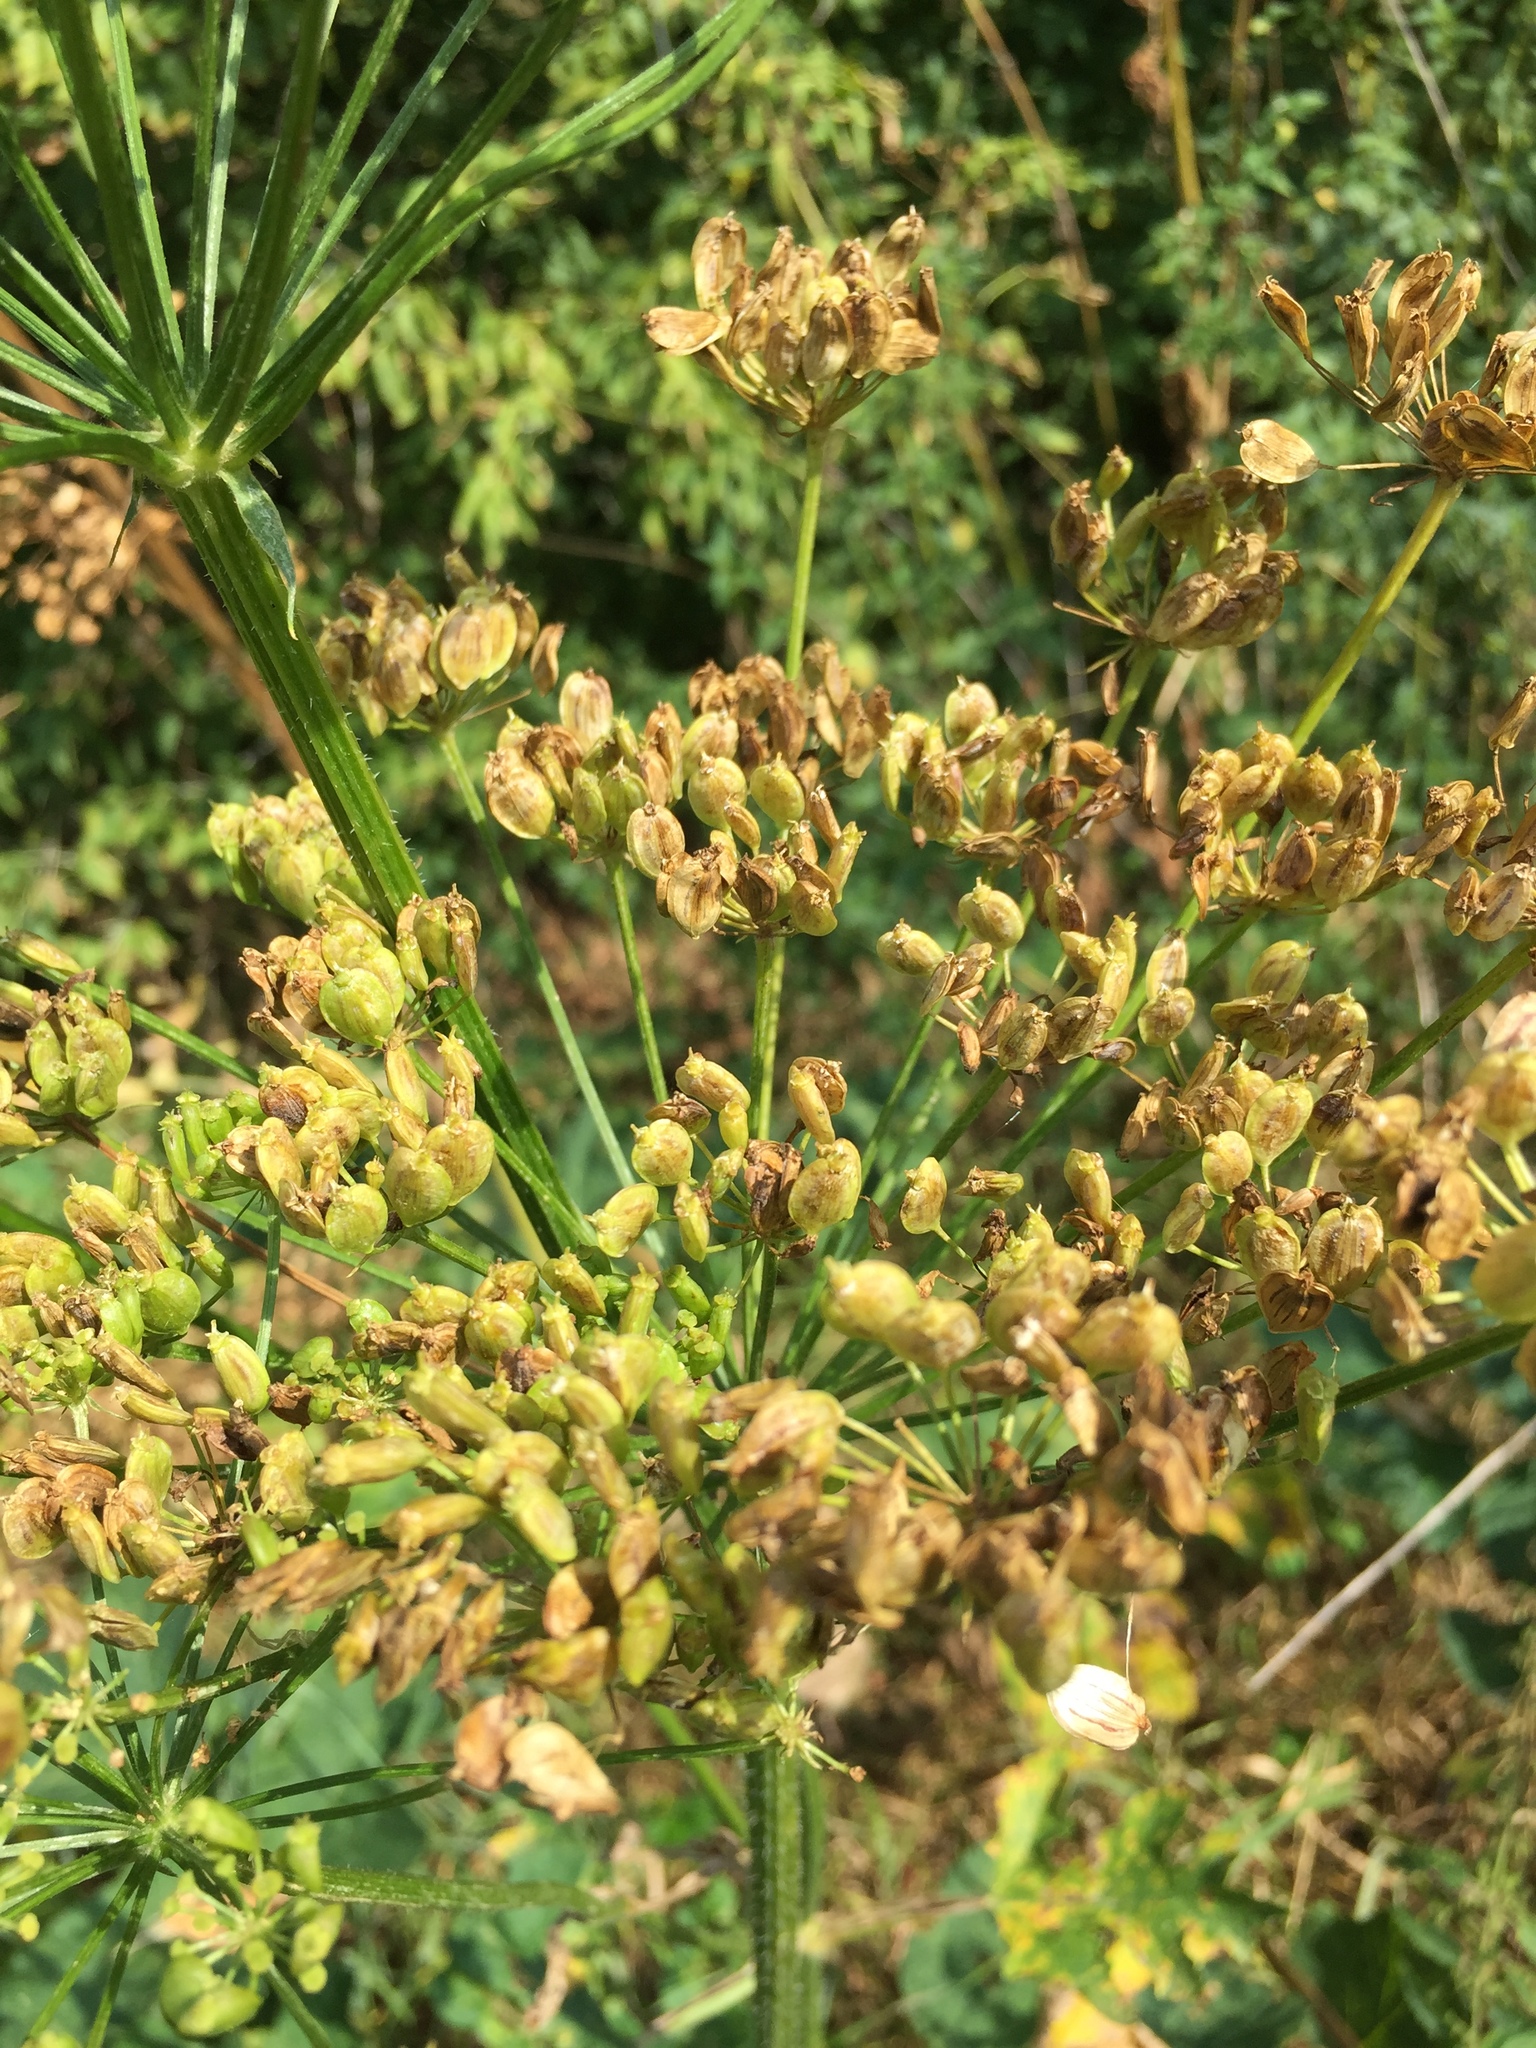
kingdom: Plantae
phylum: Tracheophyta
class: Magnoliopsida
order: Apiales
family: Apiaceae
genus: Heracleum
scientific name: Heracleum sphondylium
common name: Hogweed
